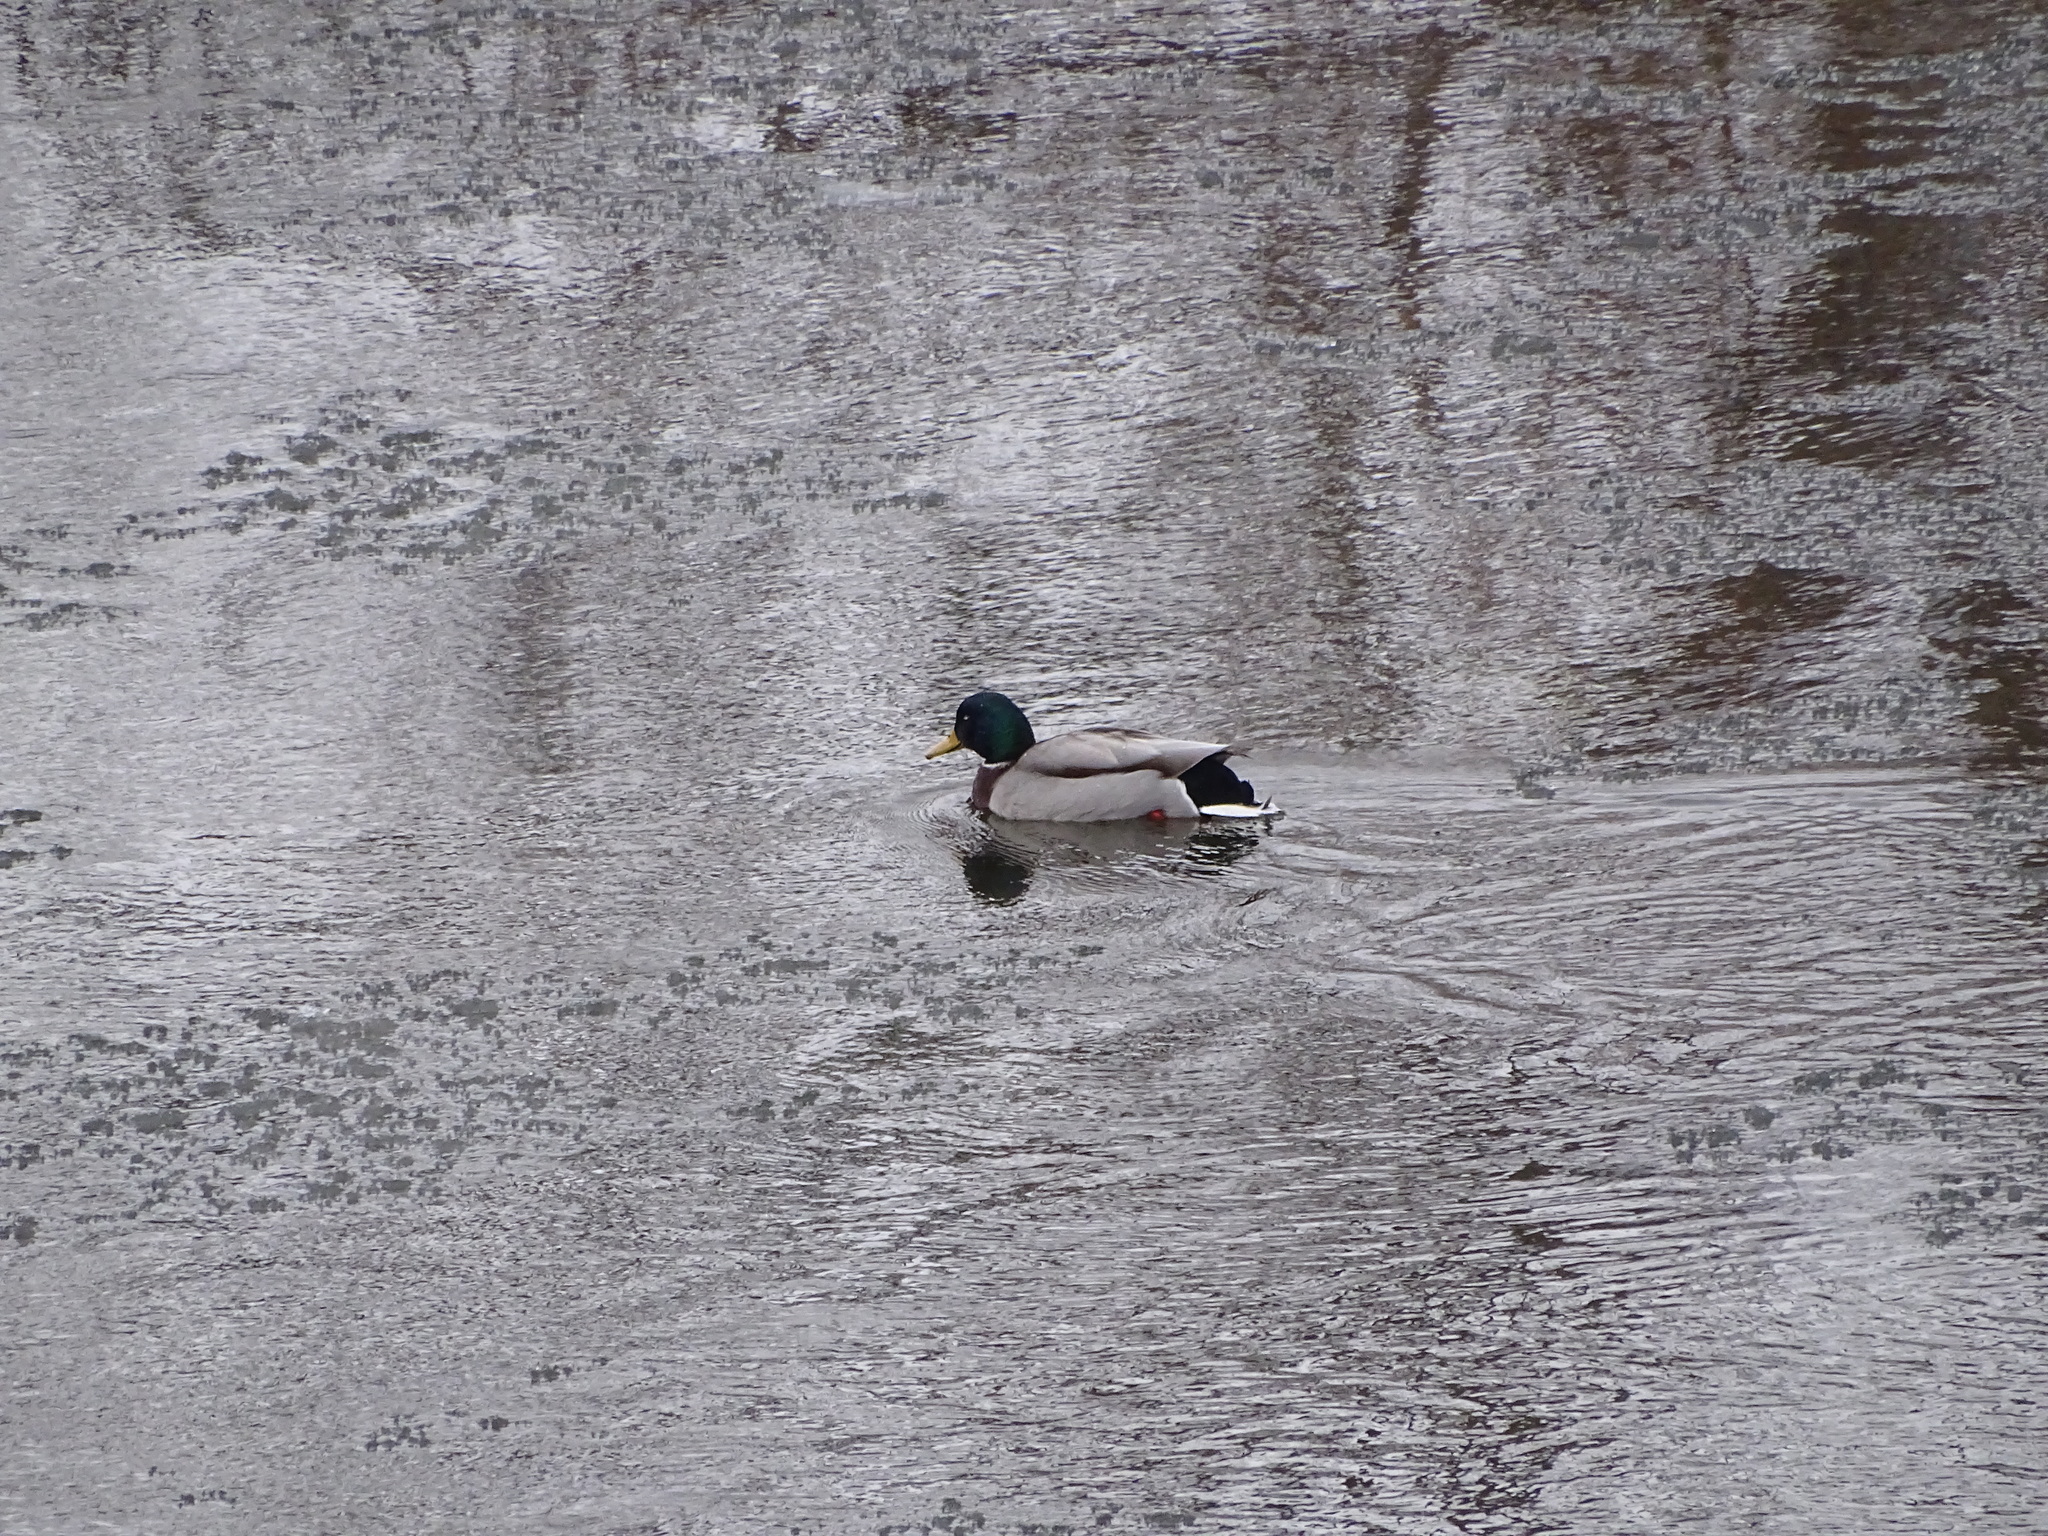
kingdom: Animalia
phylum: Chordata
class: Aves
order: Anseriformes
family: Anatidae
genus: Anas
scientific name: Anas platyrhynchos
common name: Mallard
